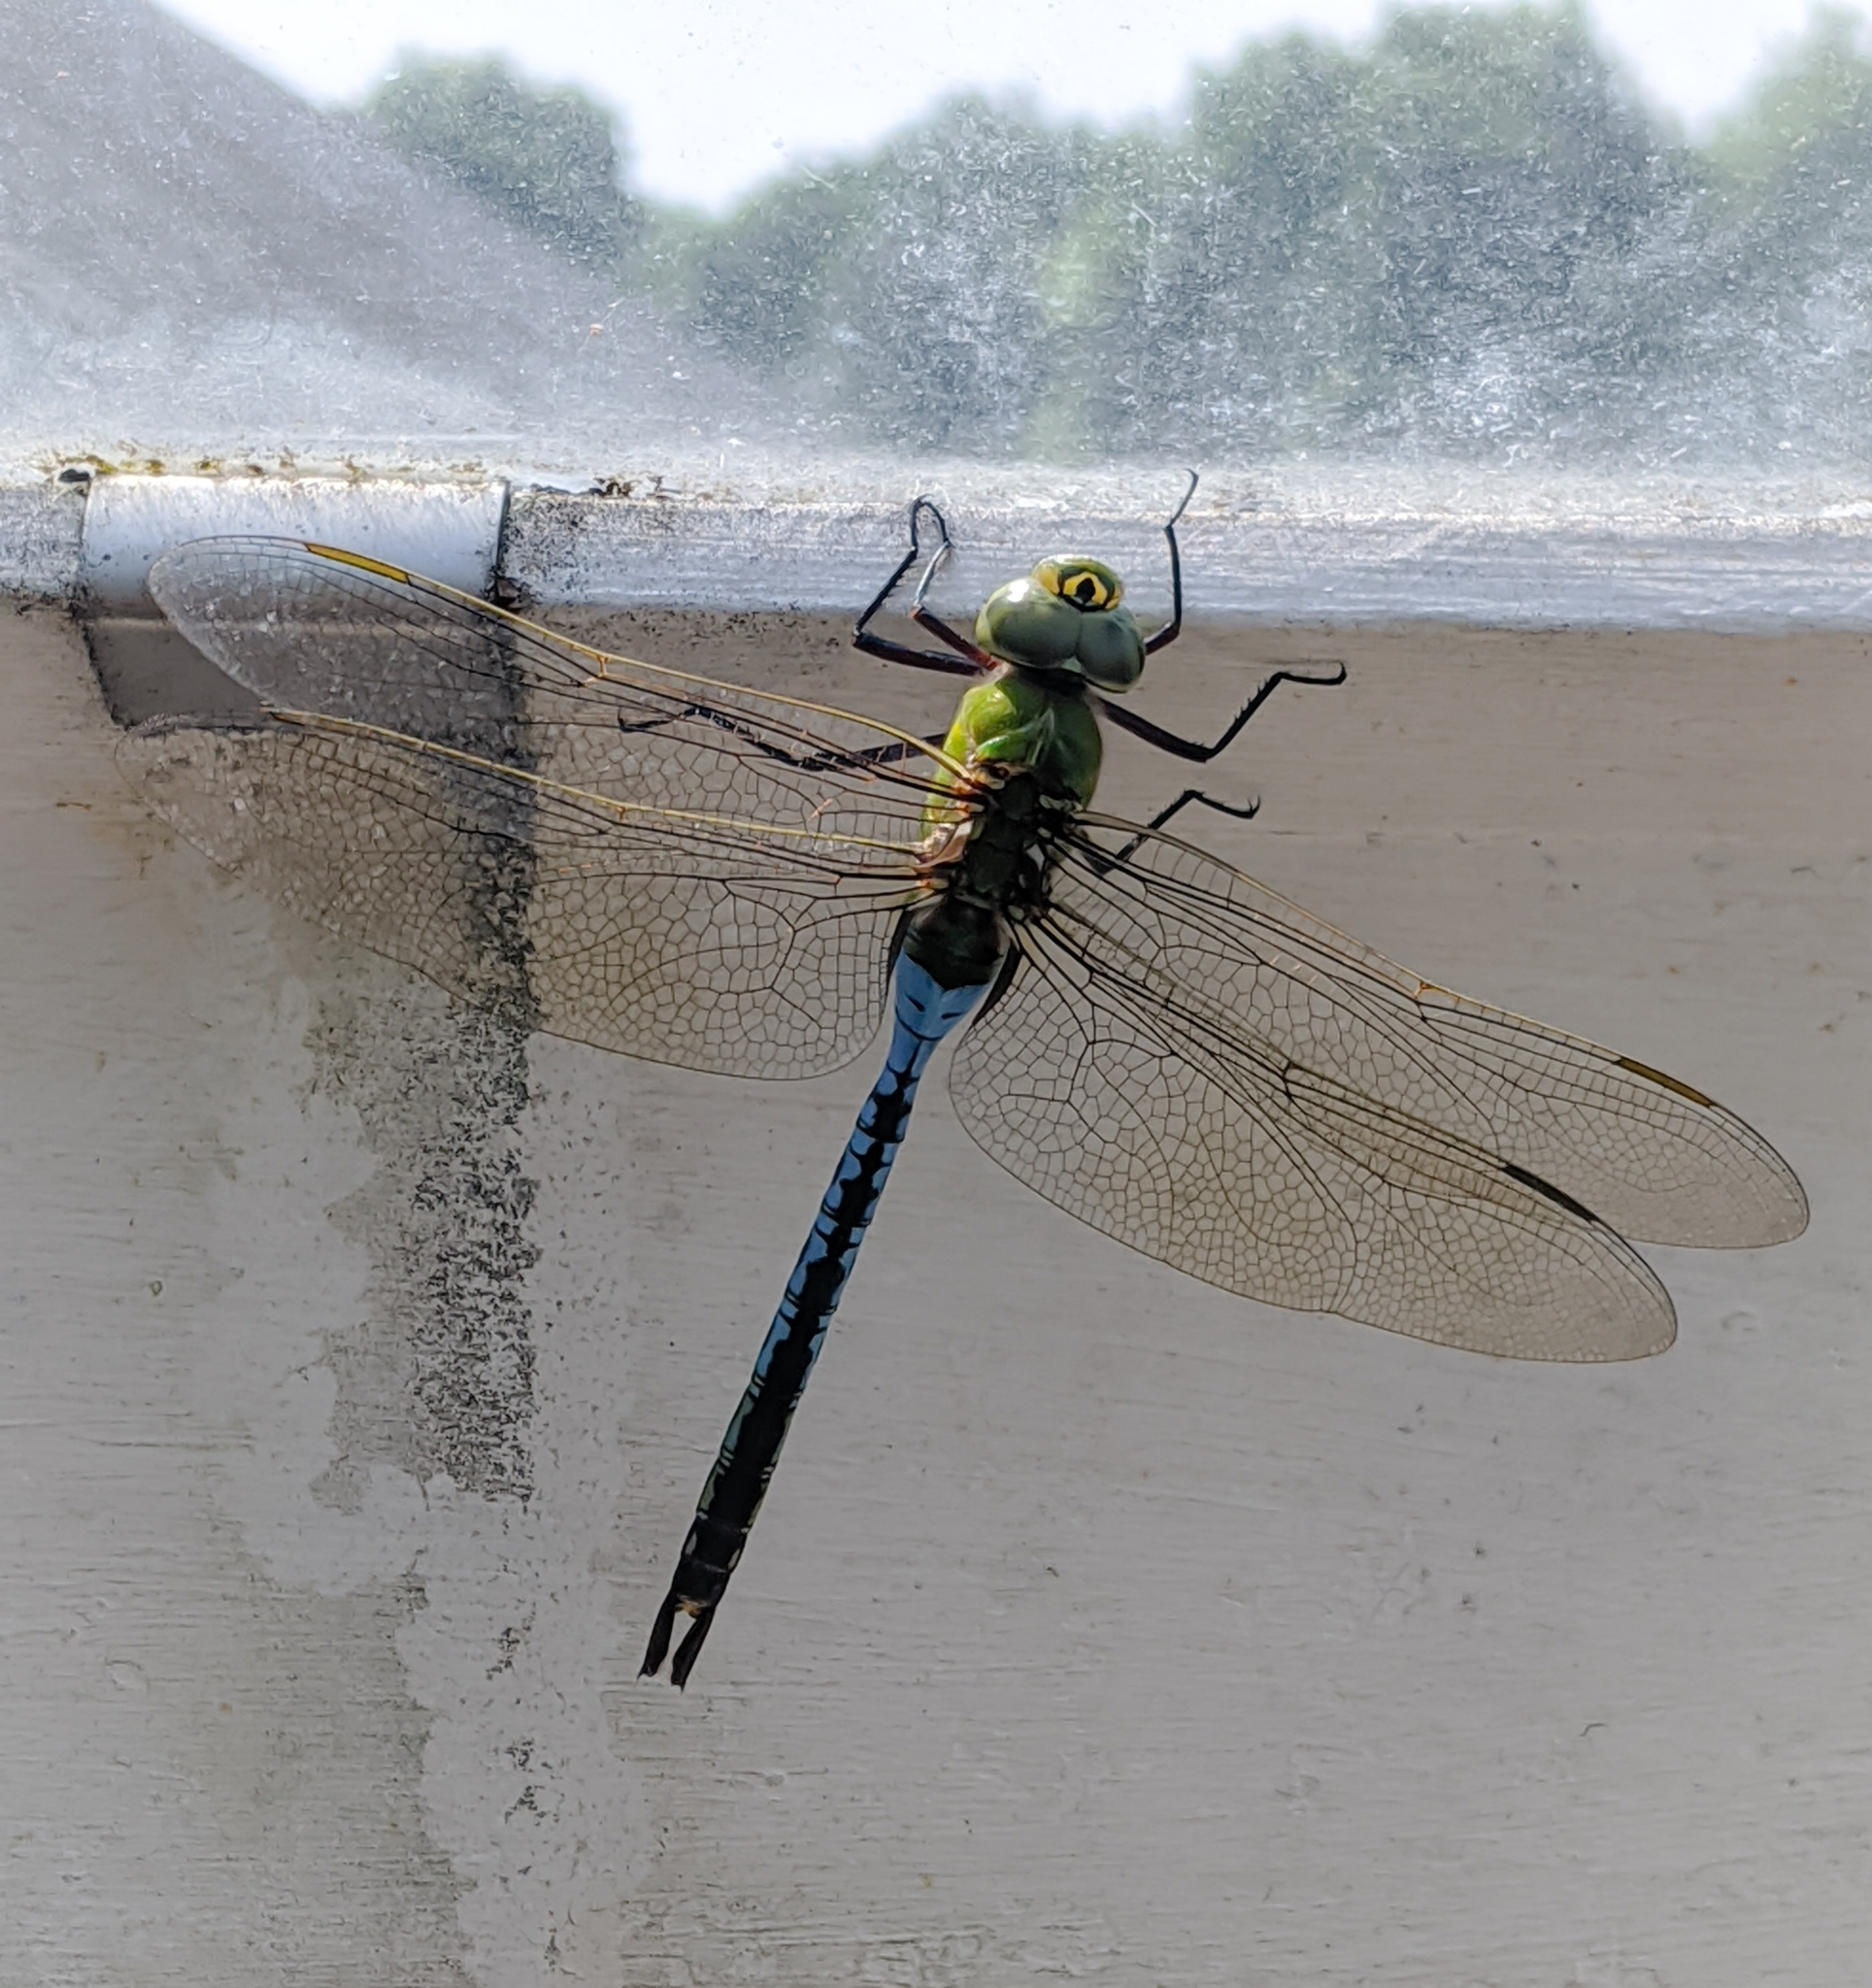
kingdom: Animalia
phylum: Arthropoda
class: Insecta
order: Odonata
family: Aeshnidae
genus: Anax
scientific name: Anax junius
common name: Common green darner
